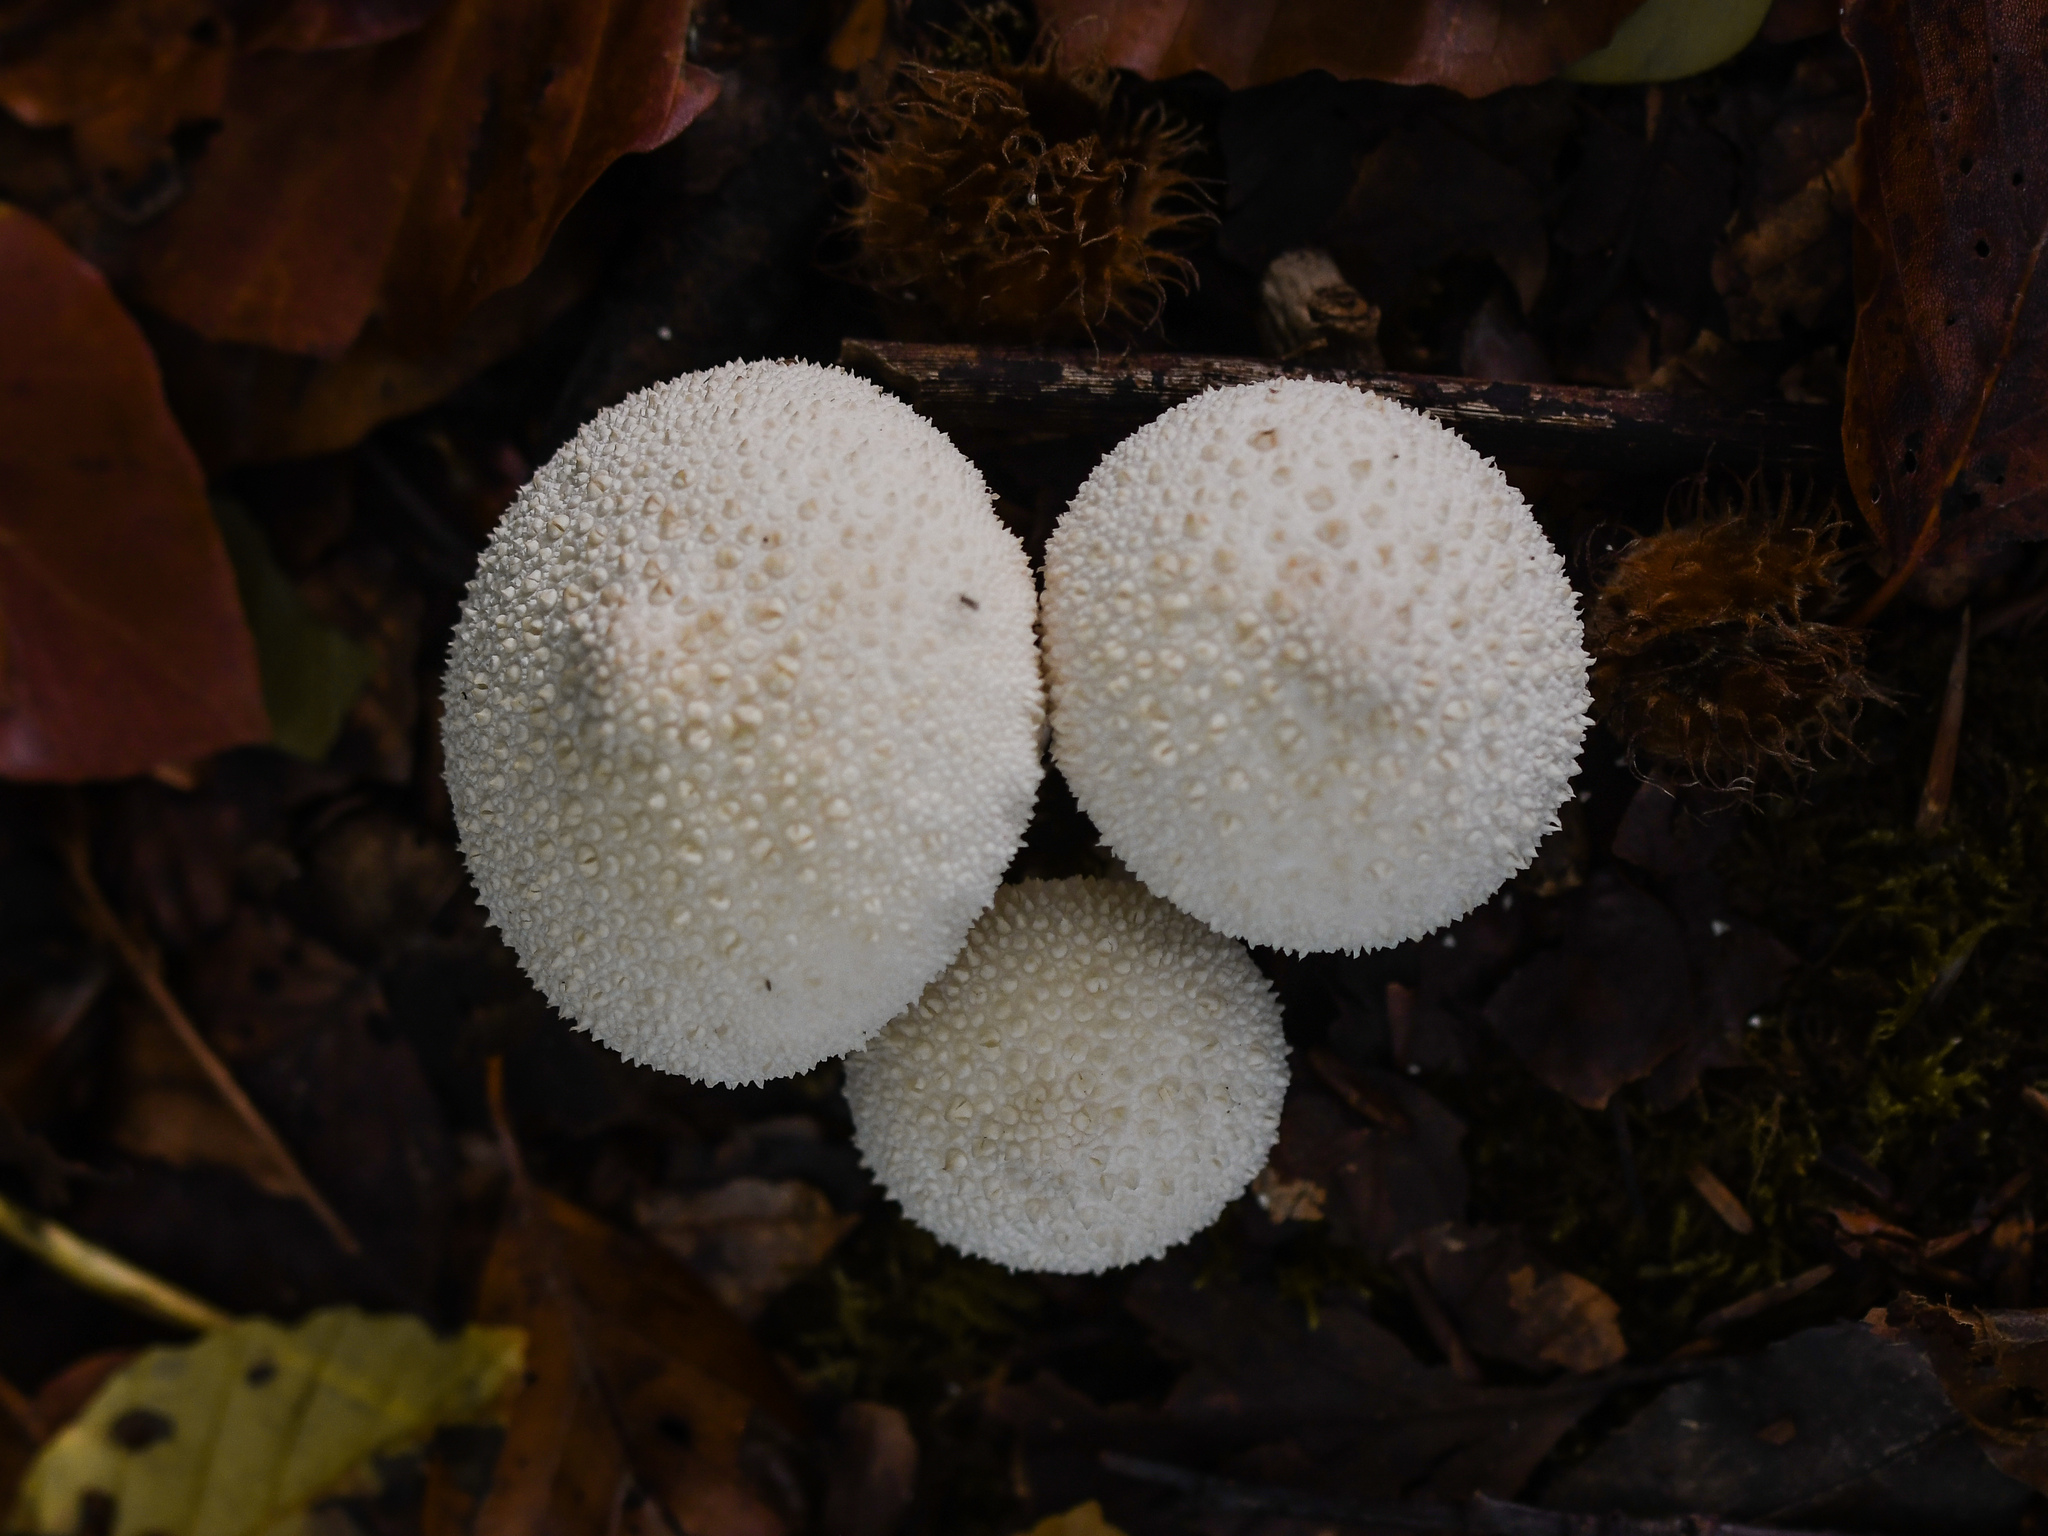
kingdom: Fungi
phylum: Basidiomycota
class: Agaricomycetes
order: Agaricales
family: Lycoperdaceae
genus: Lycoperdon
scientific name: Lycoperdon perlatum
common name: Common puffball
